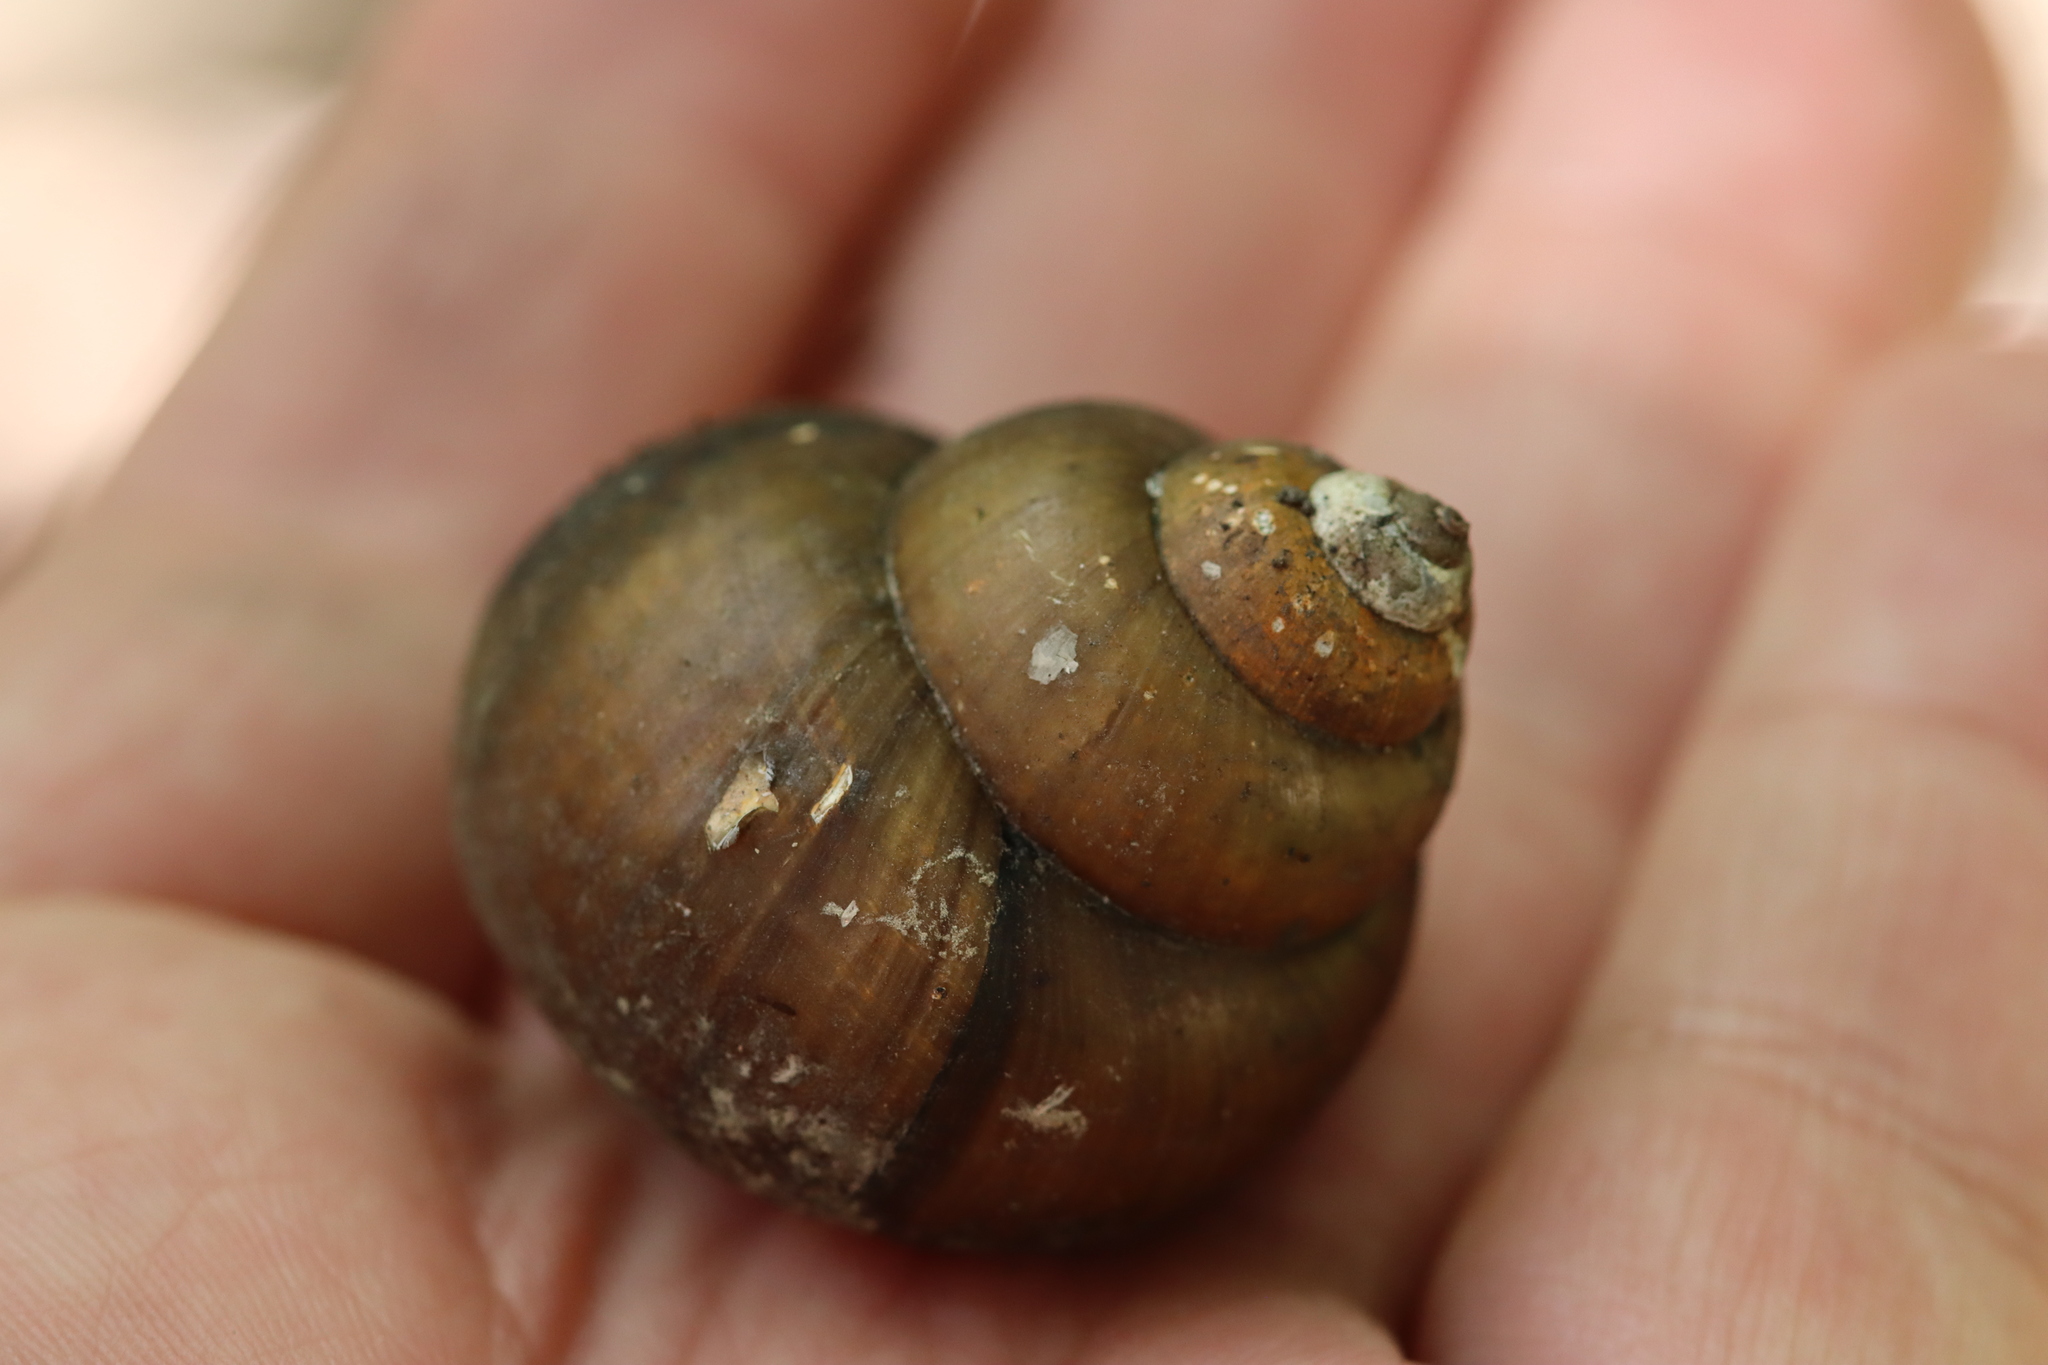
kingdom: Animalia
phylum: Mollusca
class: Gastropoda
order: Architaenioglossa
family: Viviparidae
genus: Cipangopaludina
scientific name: Cipangopaludina chinensis
